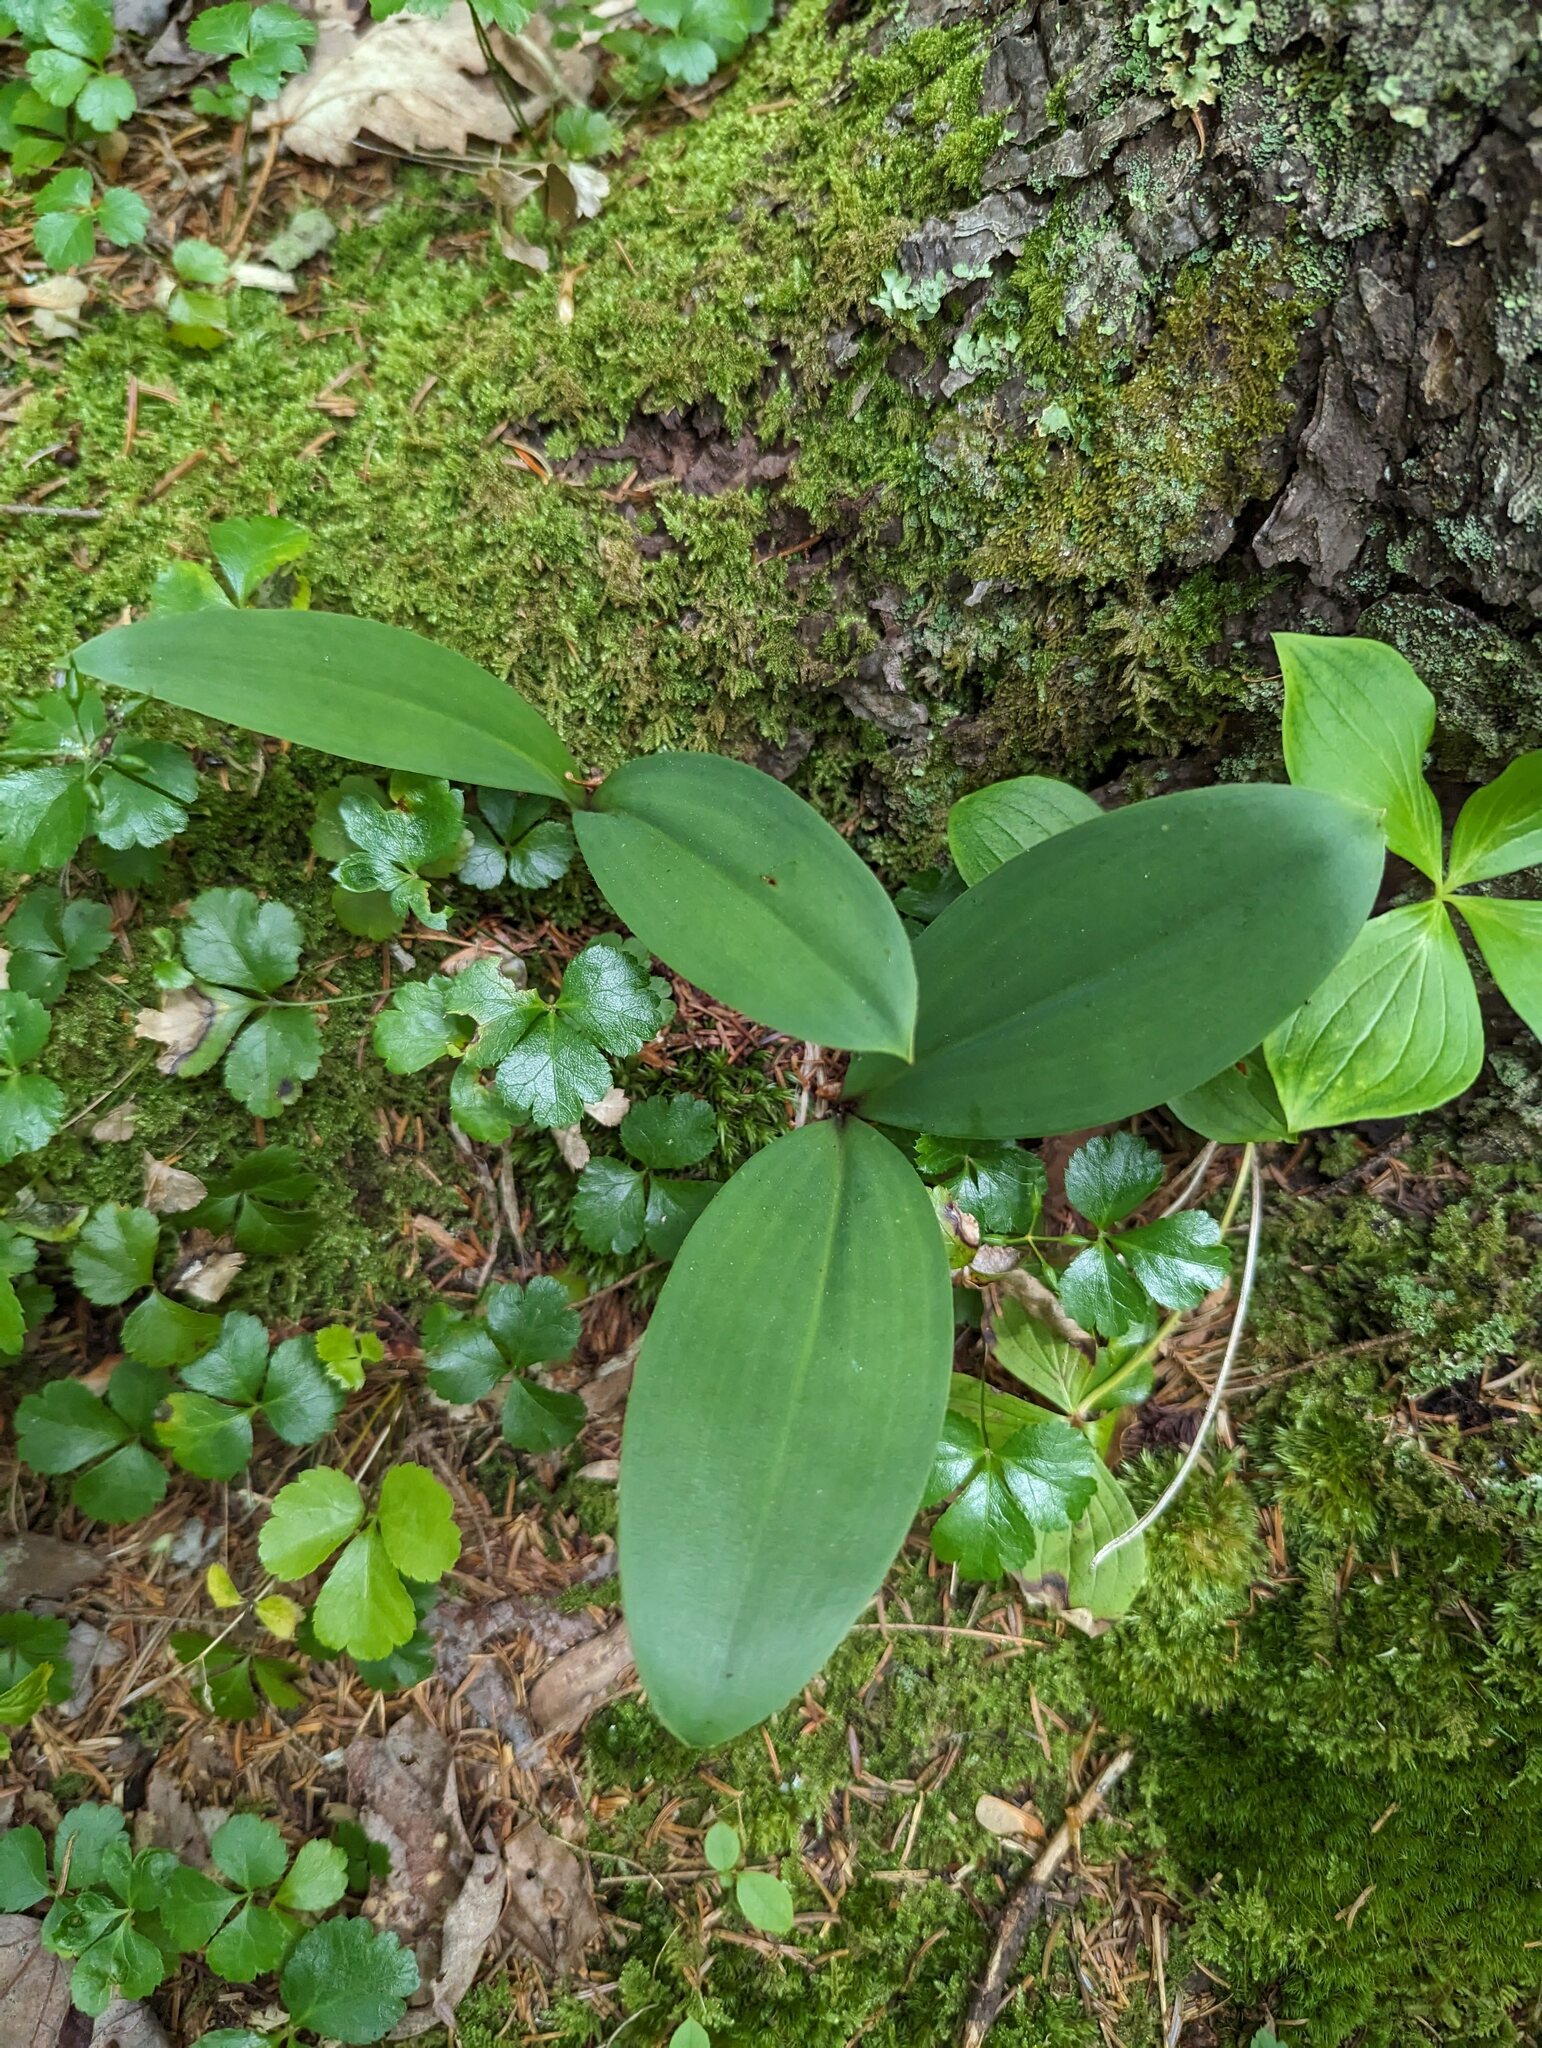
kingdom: Plantae
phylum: Tracheophyta
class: Liliopsida
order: Liliales
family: Liliaceae
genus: Clintonia
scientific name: Clintonia borealis
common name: Yellow clintonia
